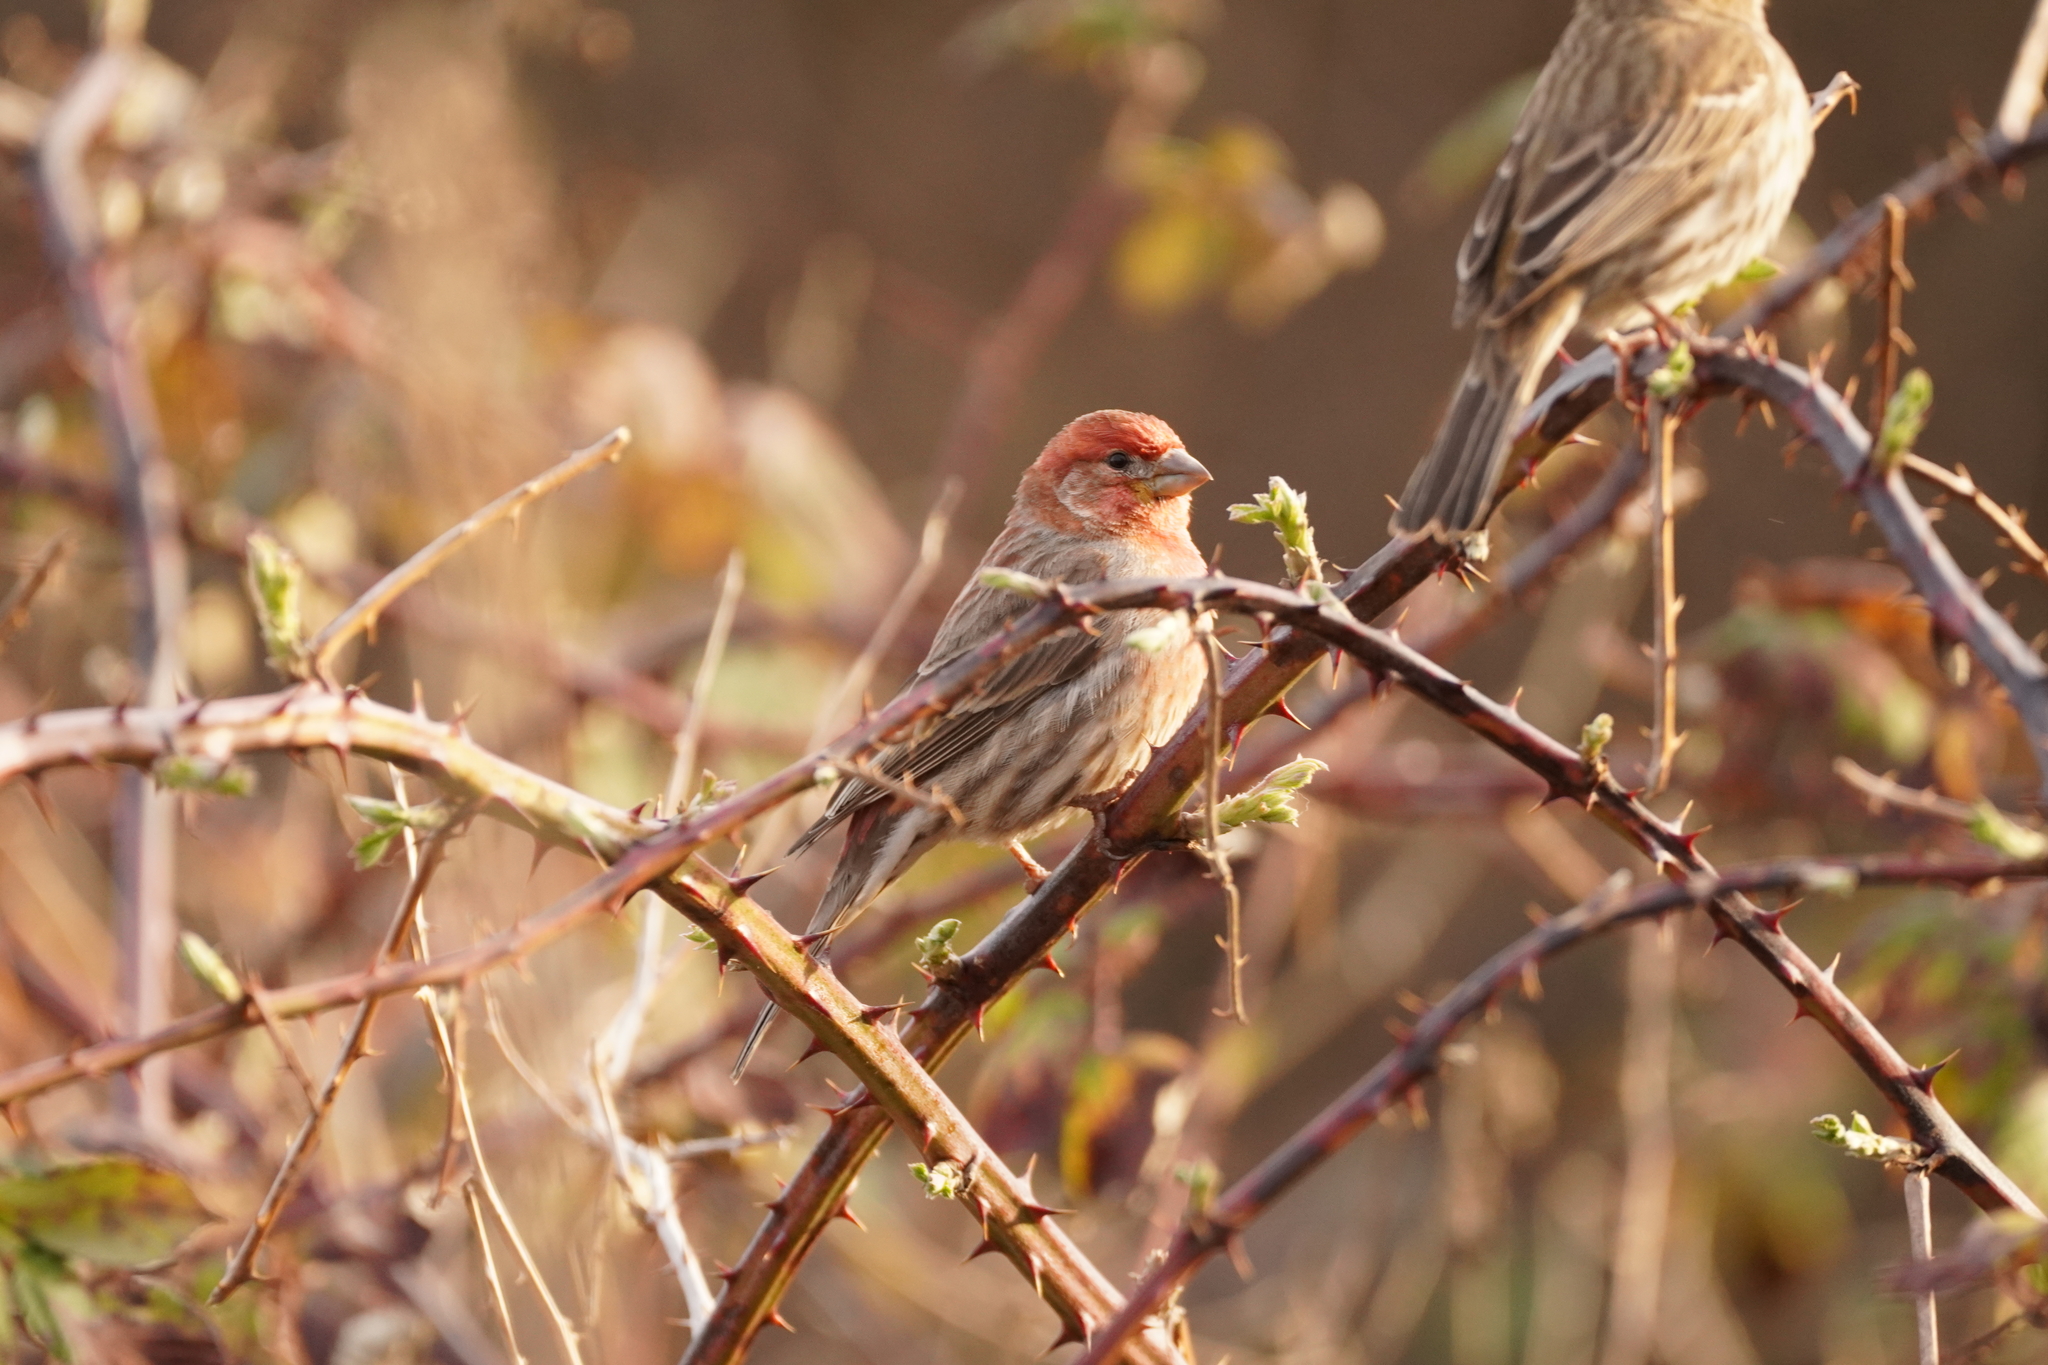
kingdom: Animalia
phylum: Chordata
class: Aves
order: Passeriformes
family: Fringillidae
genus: Haemorhous
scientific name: Haemorhous mexicanus
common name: House finch
